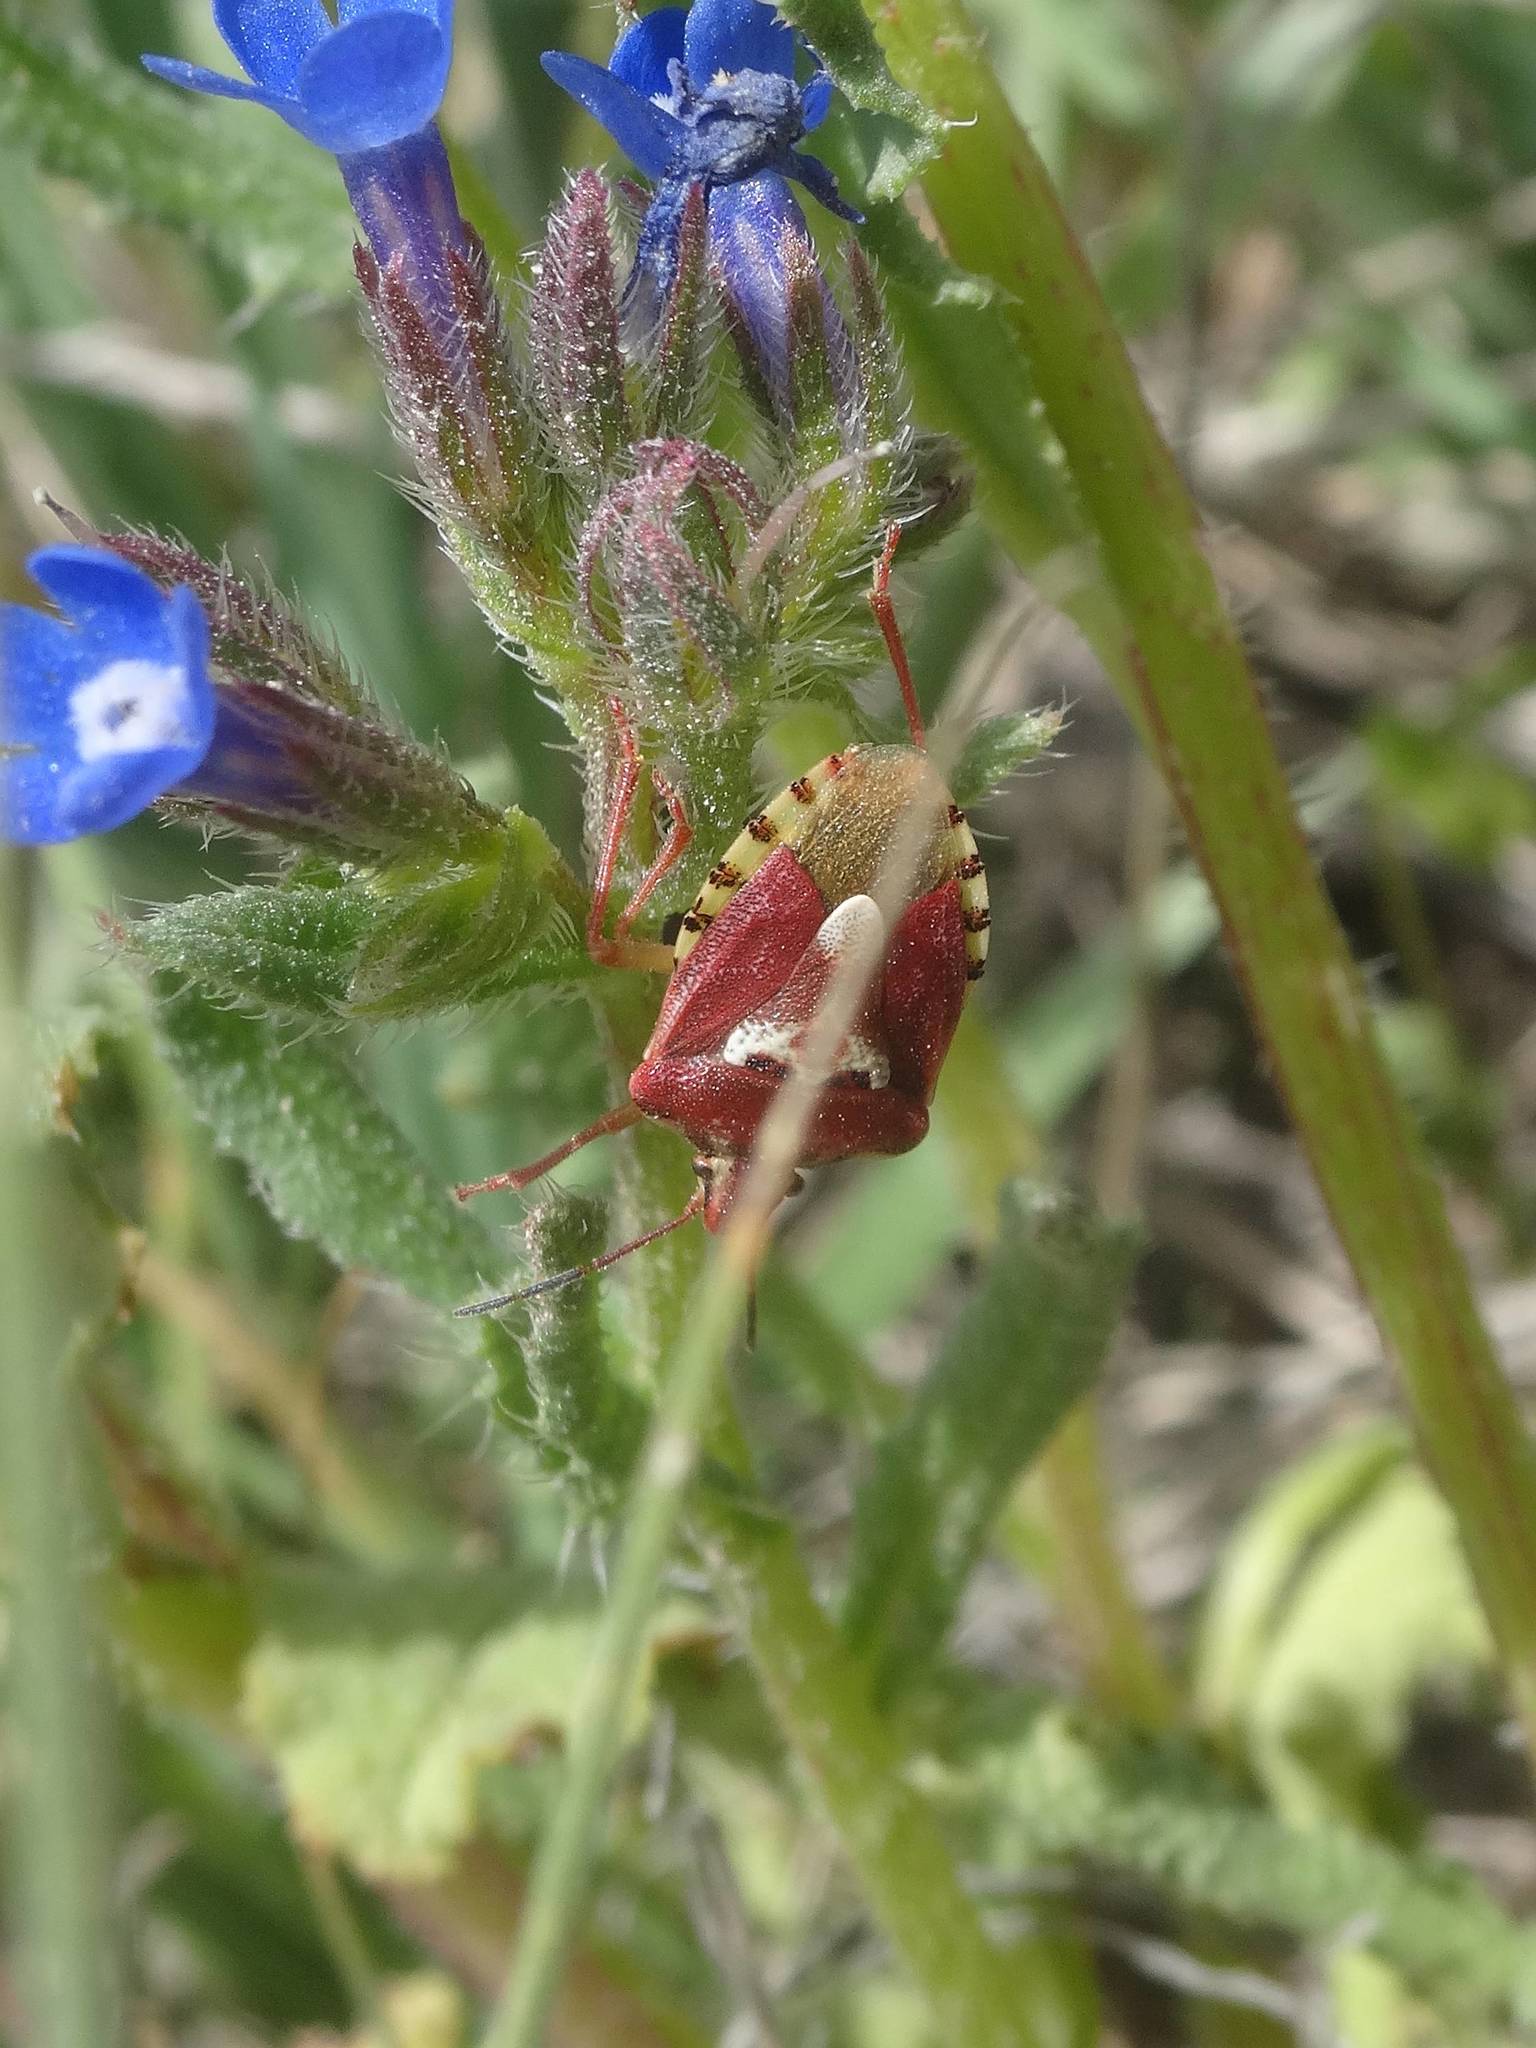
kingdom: Animalia
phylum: Arthropoda
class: Insecta
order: Hemiptera
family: Miridae
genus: Orthops
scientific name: Orthops kalmii
